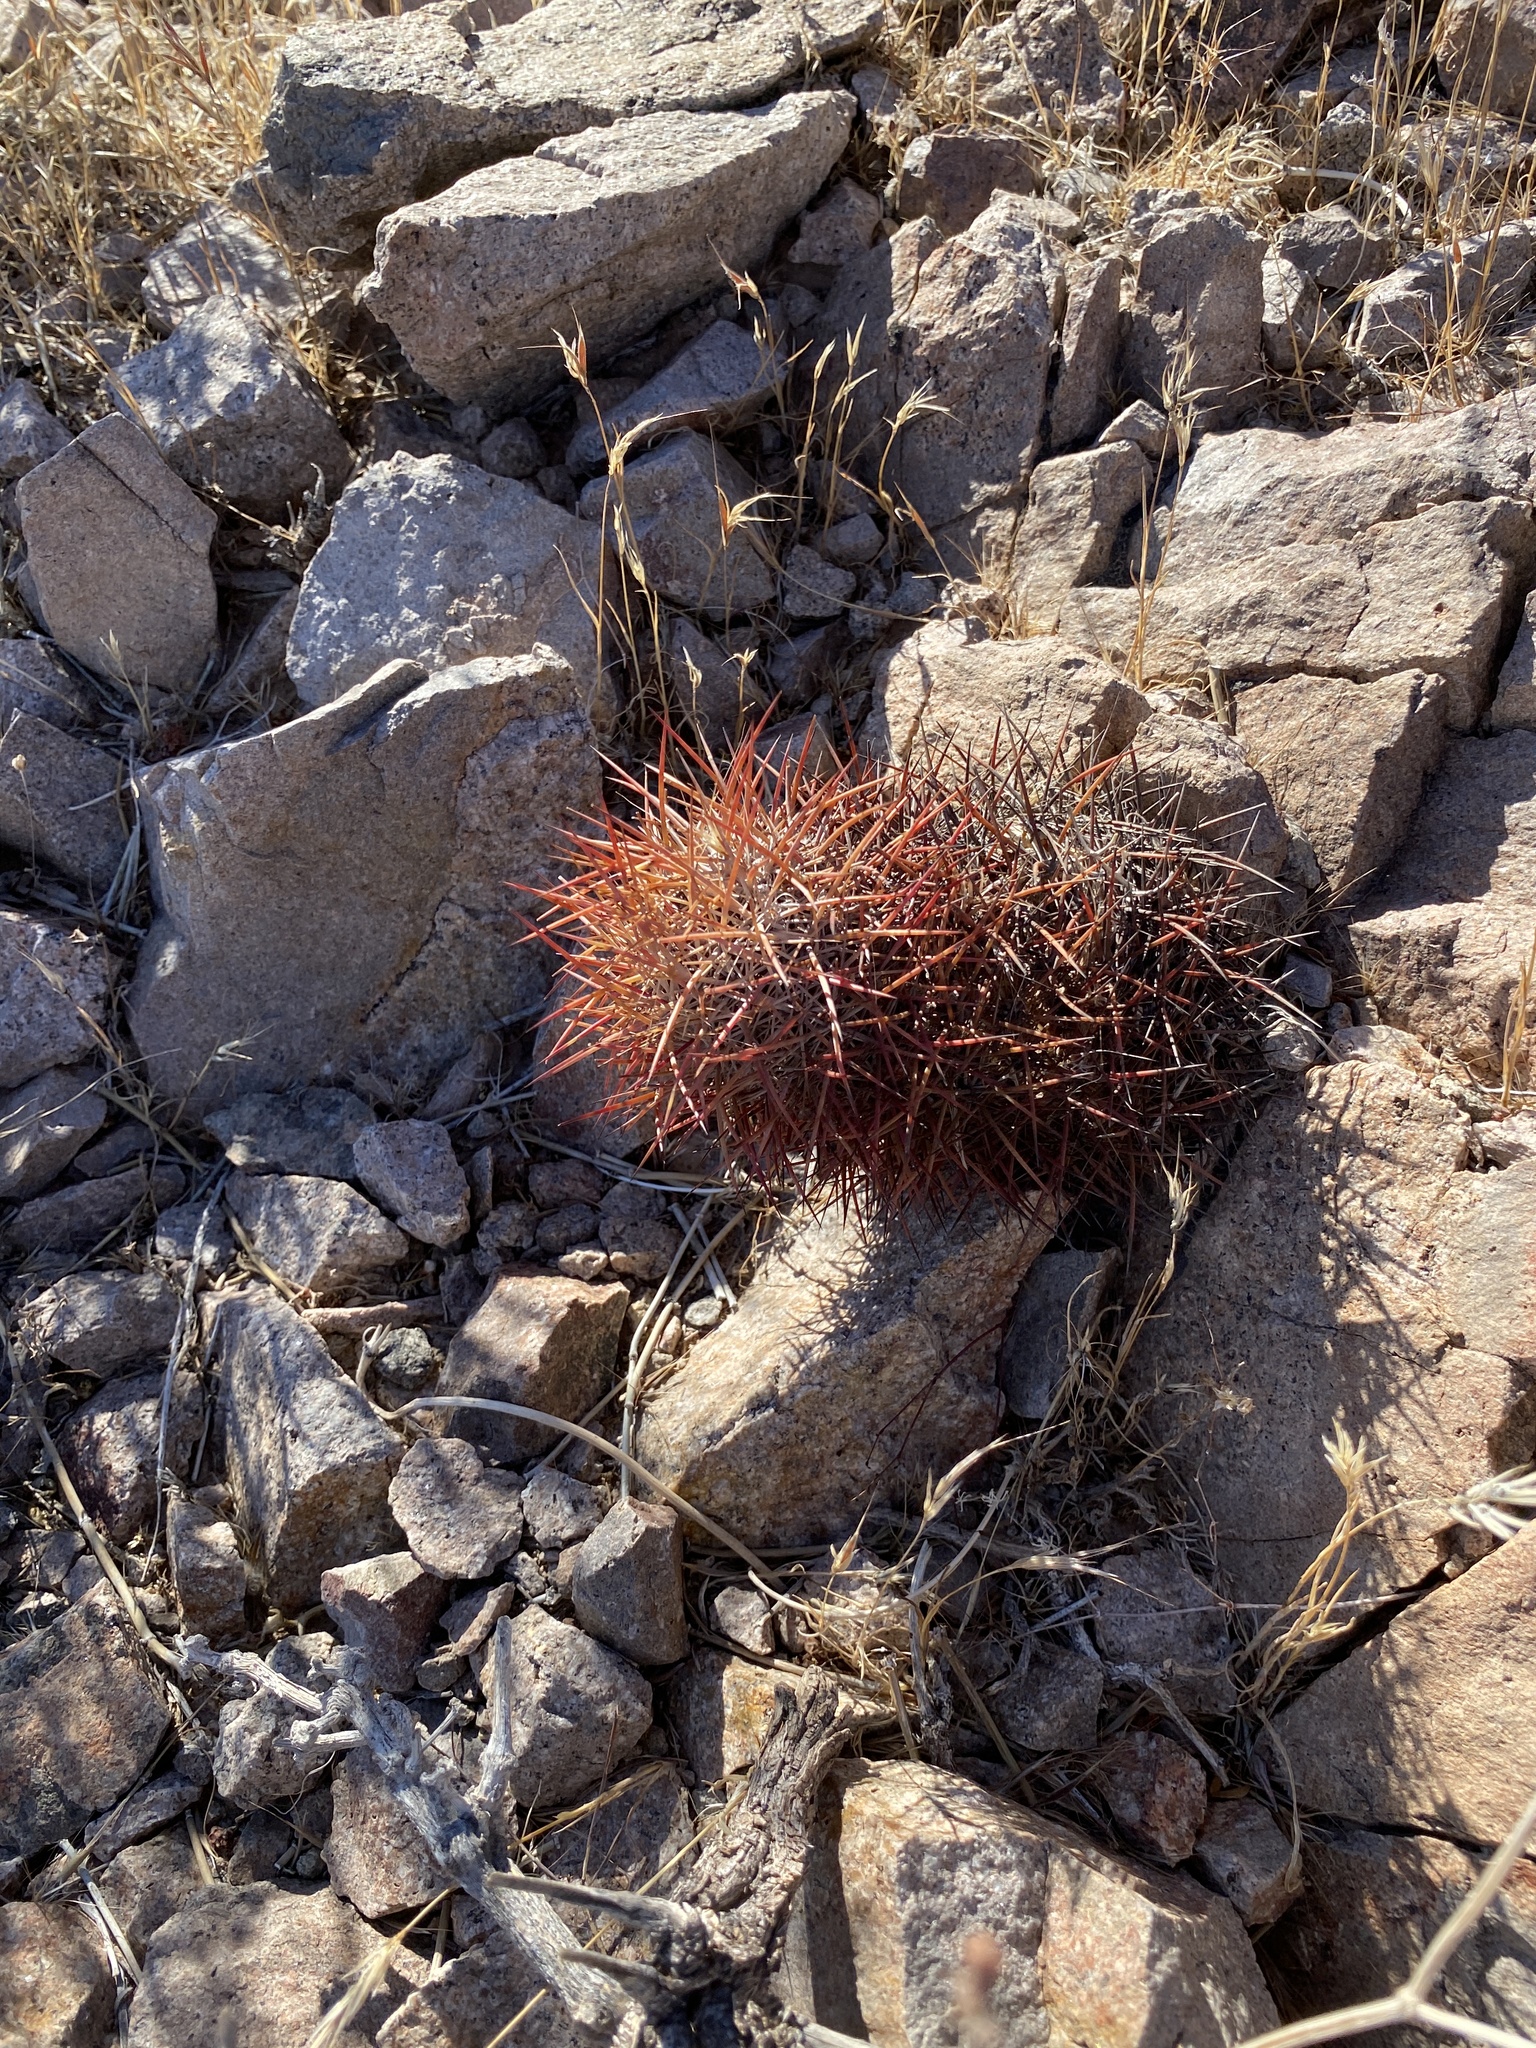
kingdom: Plantae
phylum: Tracheophyta
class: Magnoliopsida
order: Caryophyllales
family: Cactaceae
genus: Sclerocactus
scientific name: Sclerocactus johnsonii
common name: Eight-spine fishhook cactus
